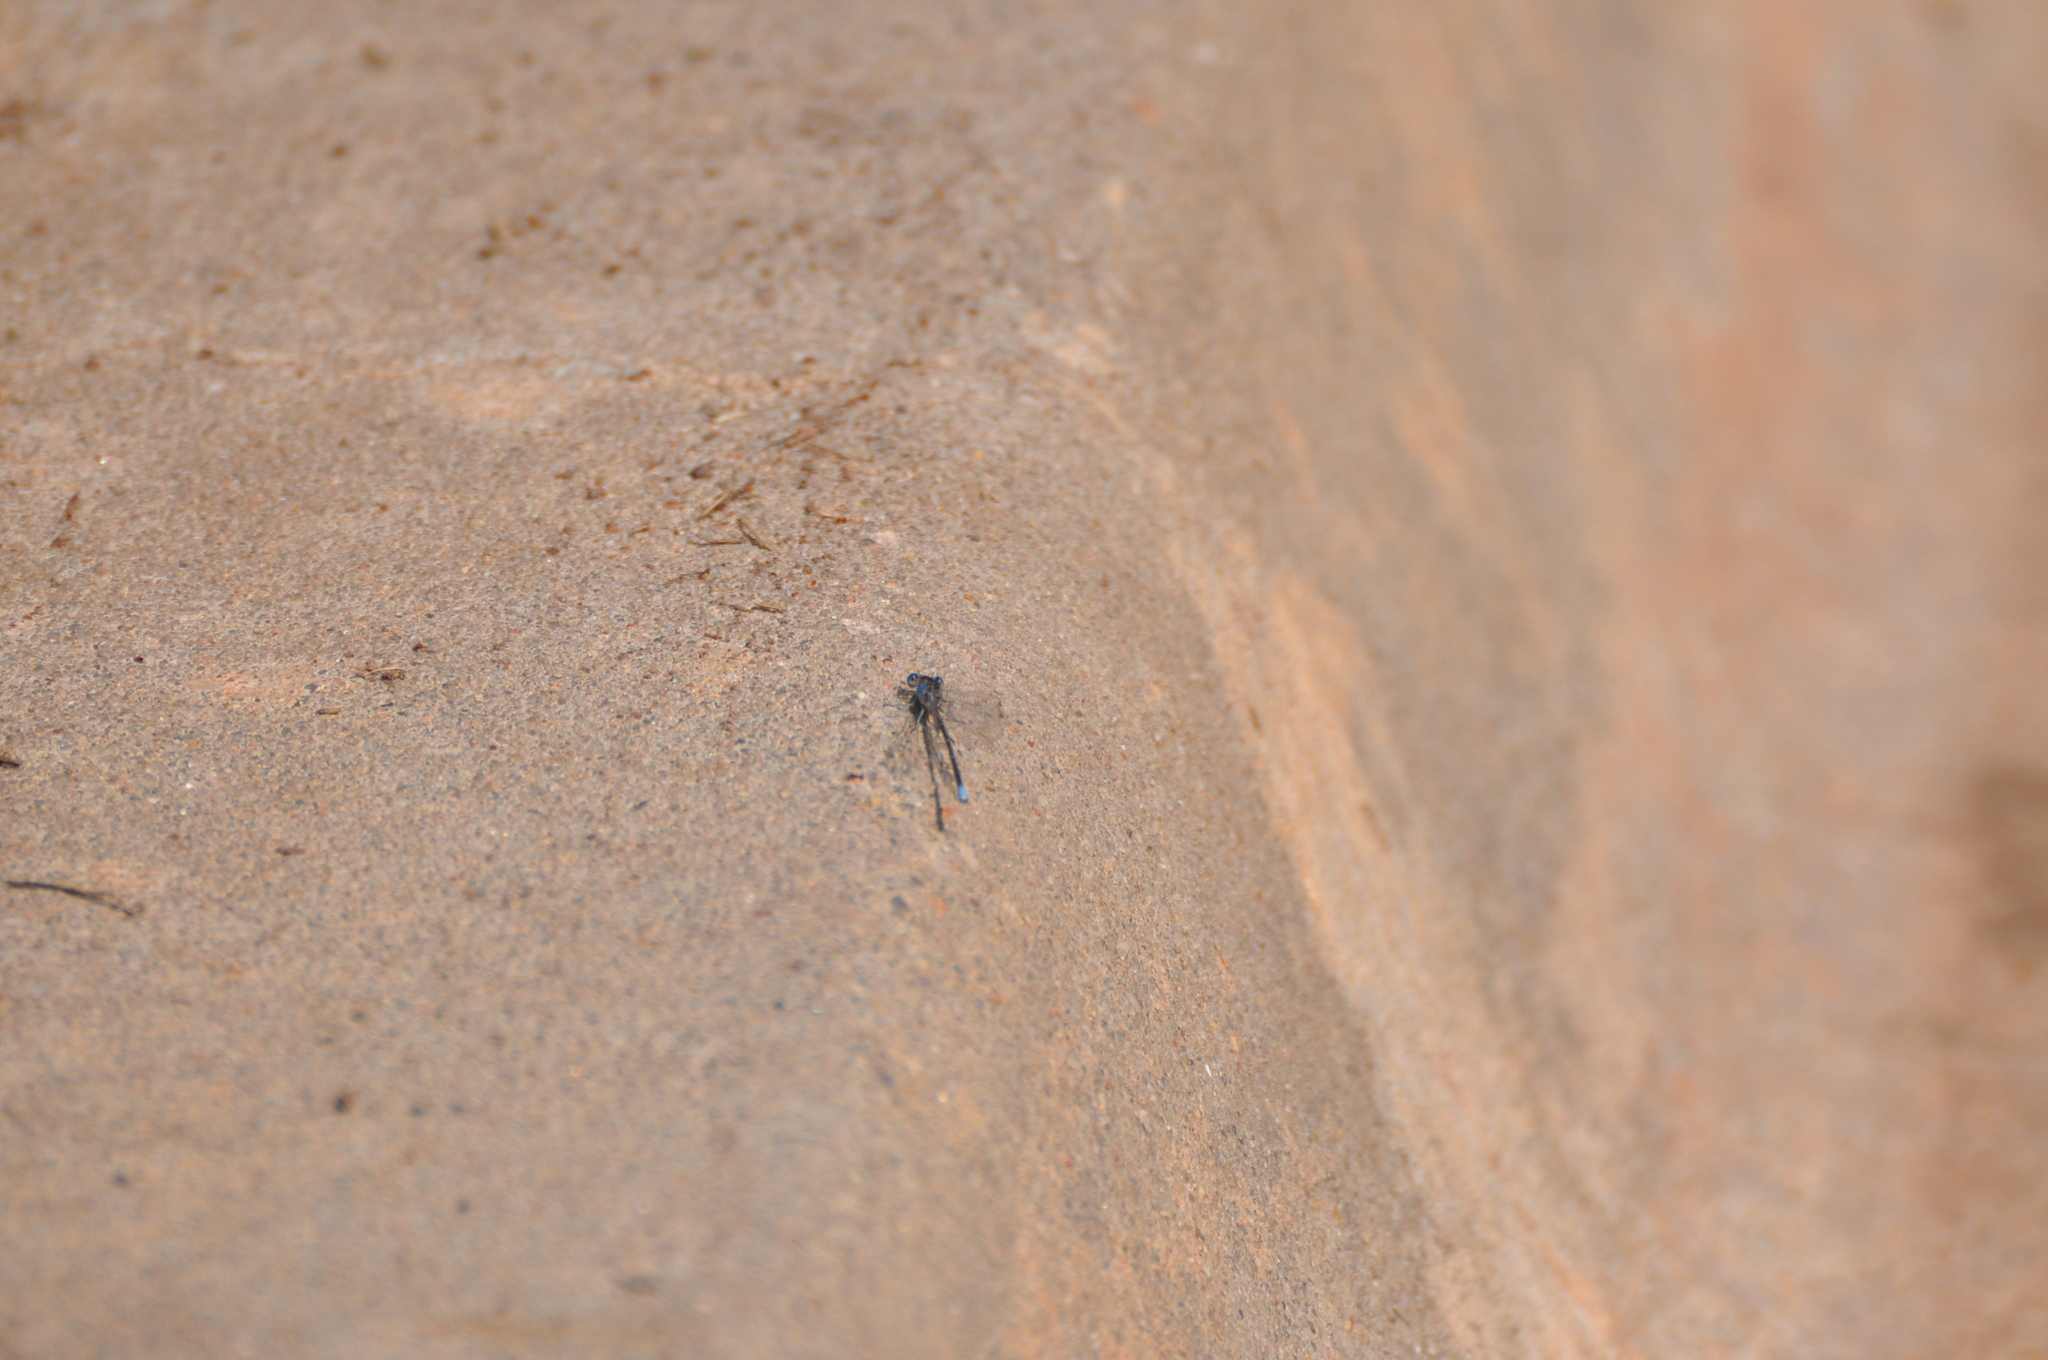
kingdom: Animalia
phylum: Arthropoda
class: Insecta
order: Odonata
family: Coenagrionidae
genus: Argia
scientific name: Argia apicalis
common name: Blue-fronted dancer
